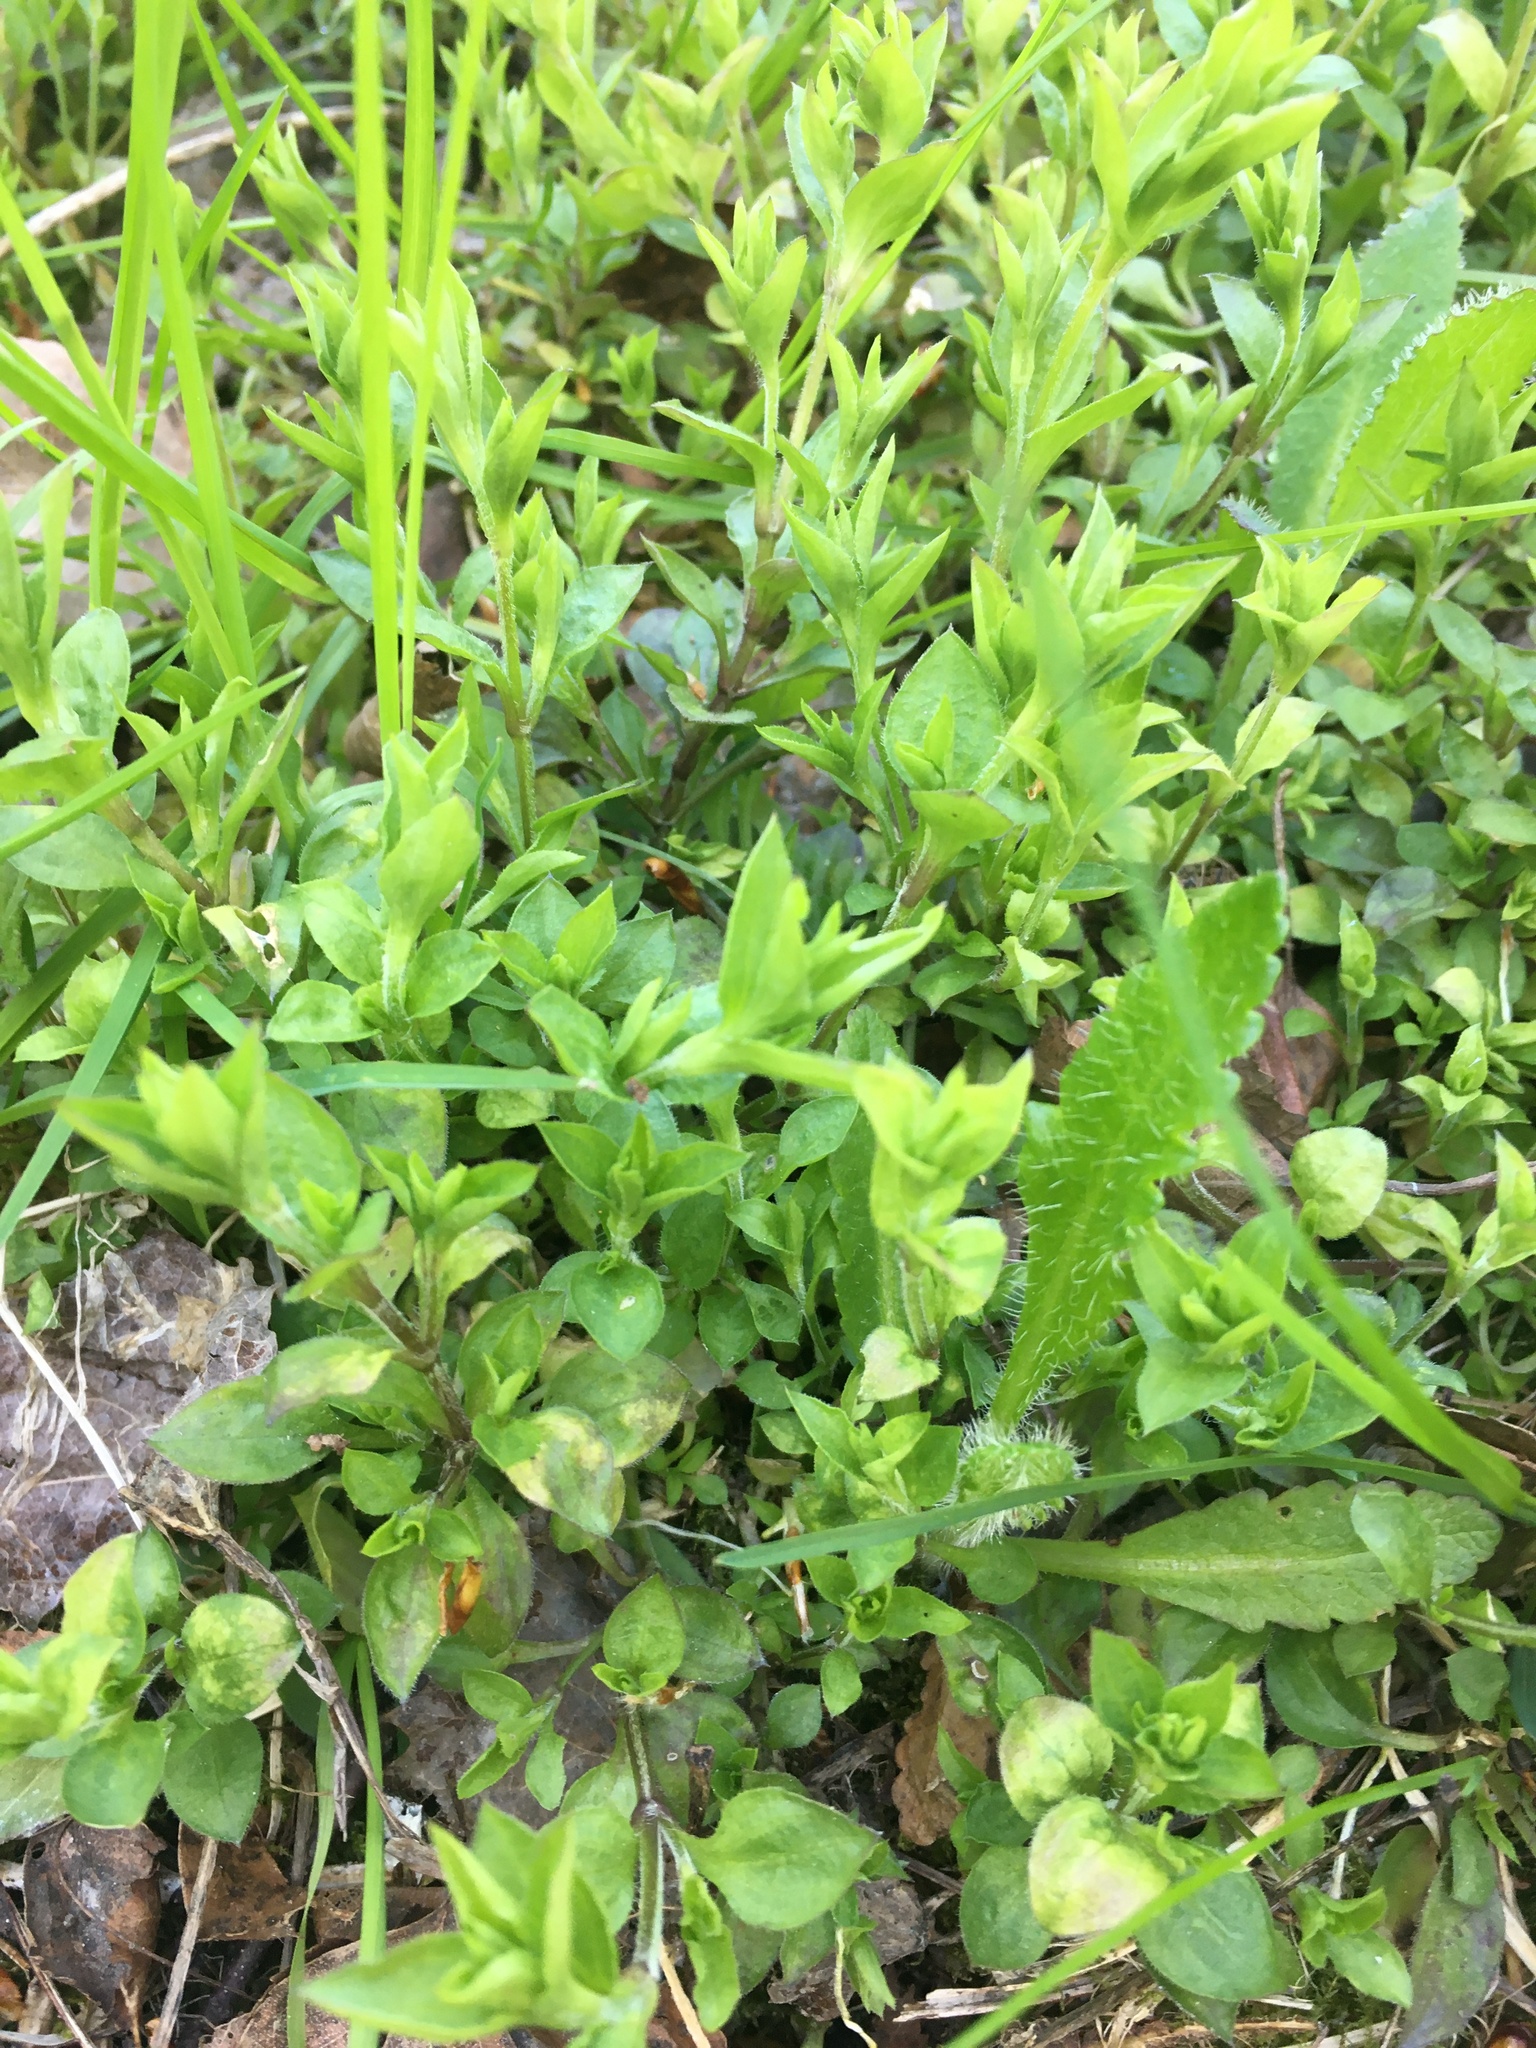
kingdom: Plantae
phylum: Tracheophyta
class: Magnoliopsida
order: Caryophyllales
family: Caryophyllaceae
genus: Moehringia
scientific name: Moehringia trinervia
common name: Three-nerved sandwort
